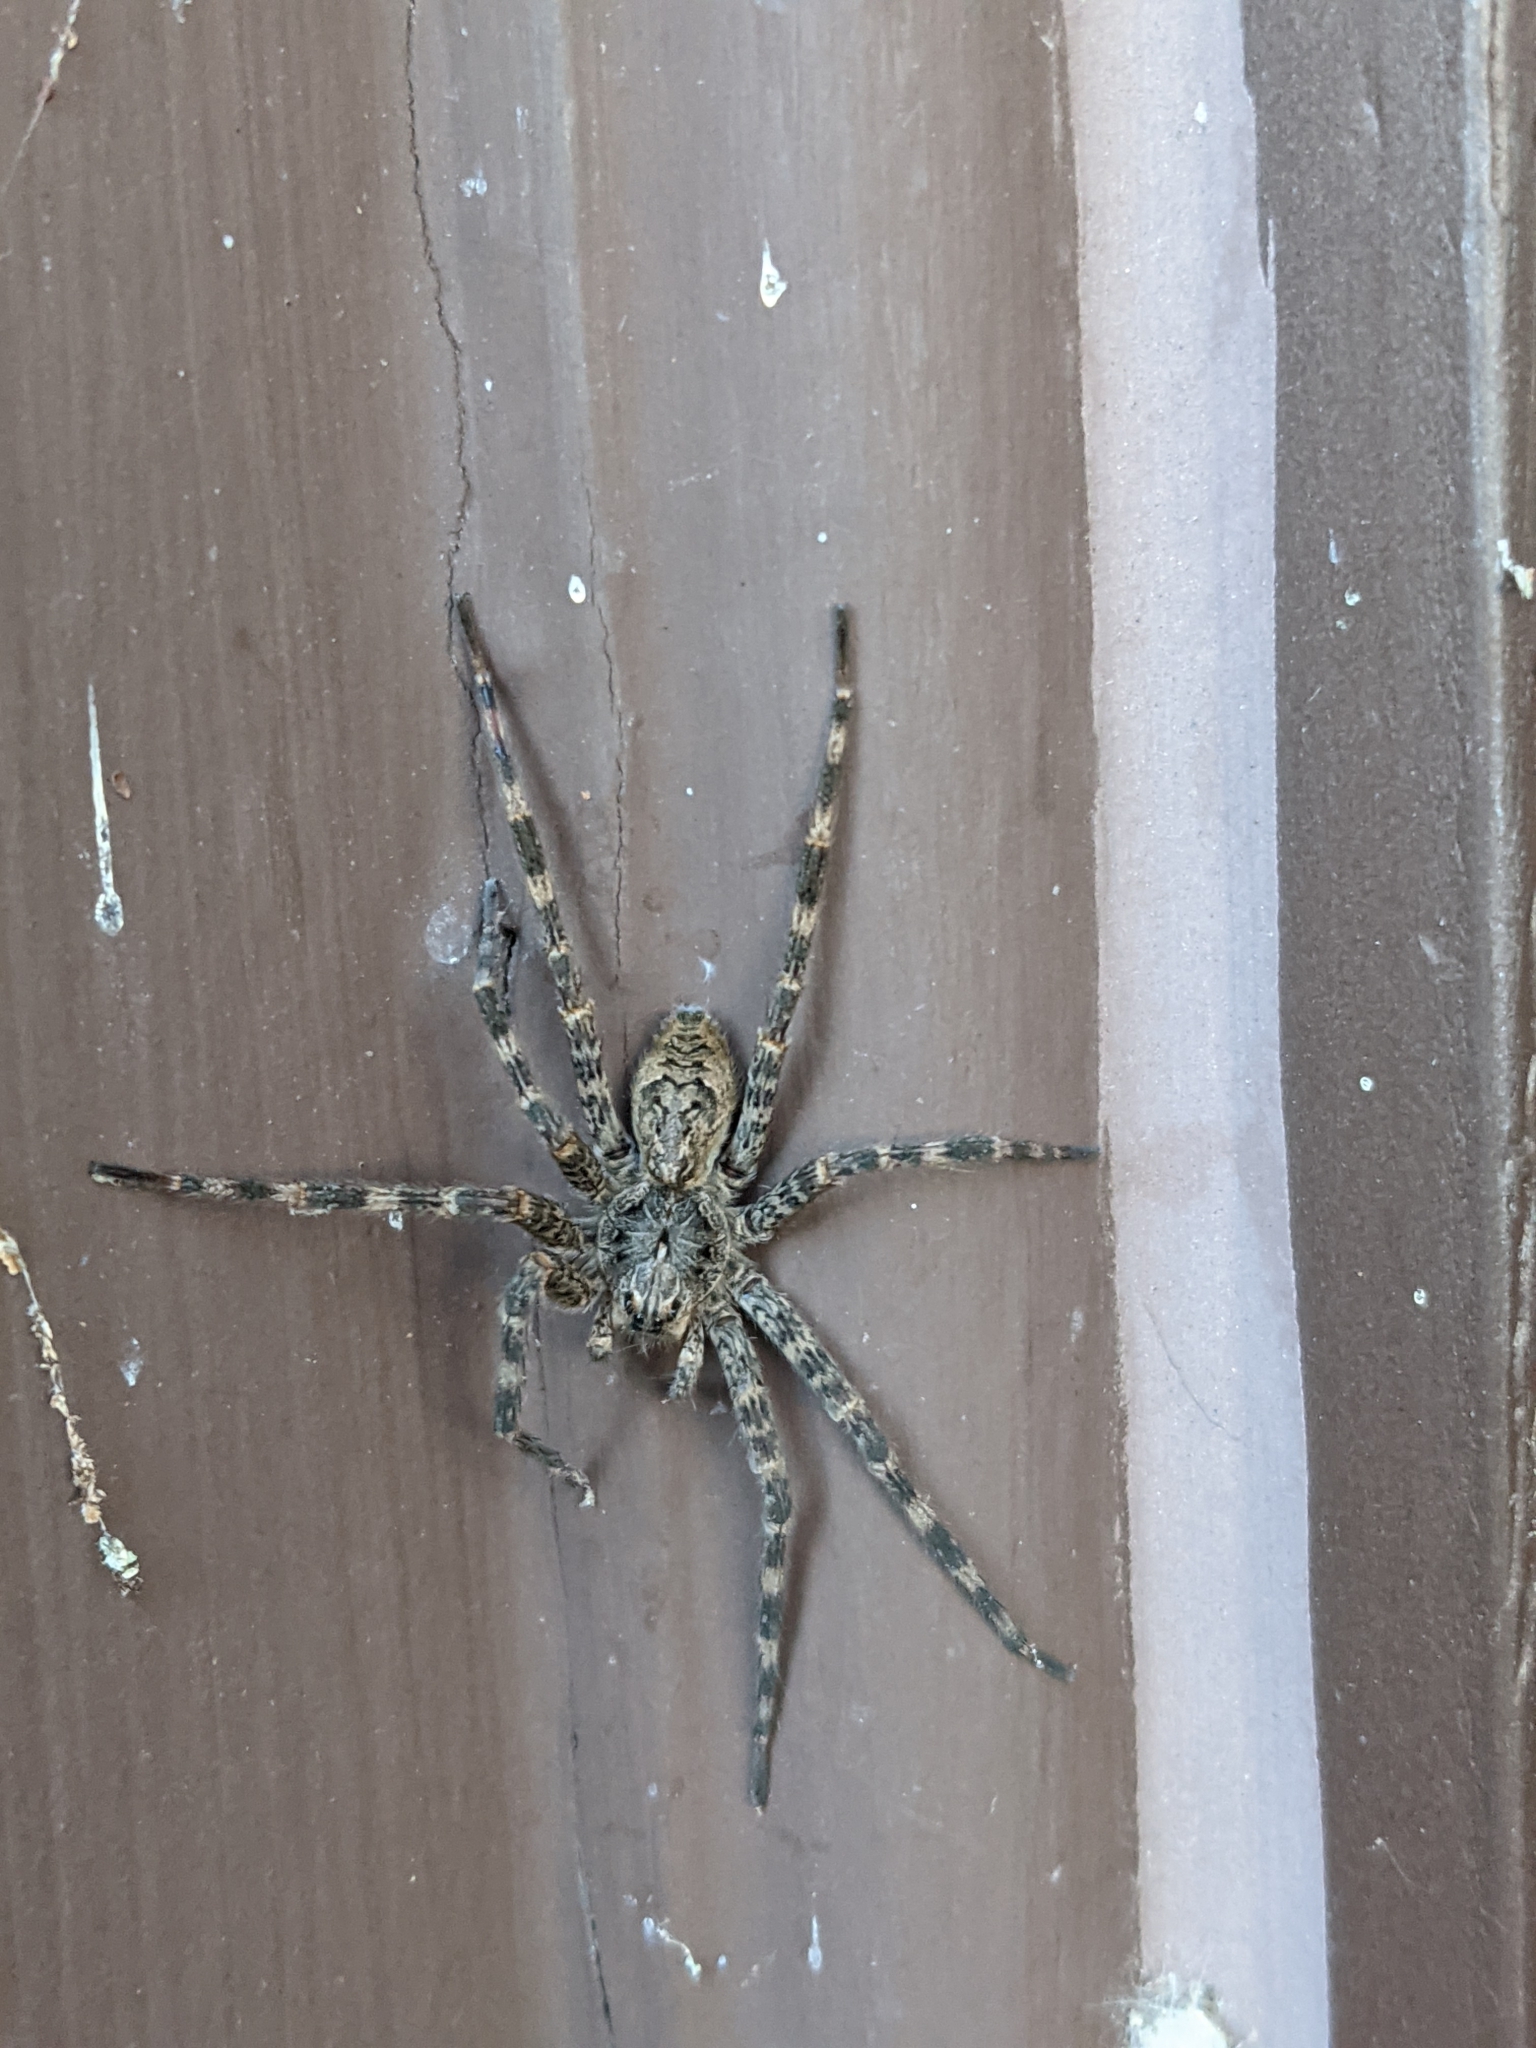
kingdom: Animalia
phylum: Arthropoda
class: Arachnida
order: Araneae
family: Pisauridae
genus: Dolomedes
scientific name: Dolomedes tenebrosus
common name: Dark fishing spider
